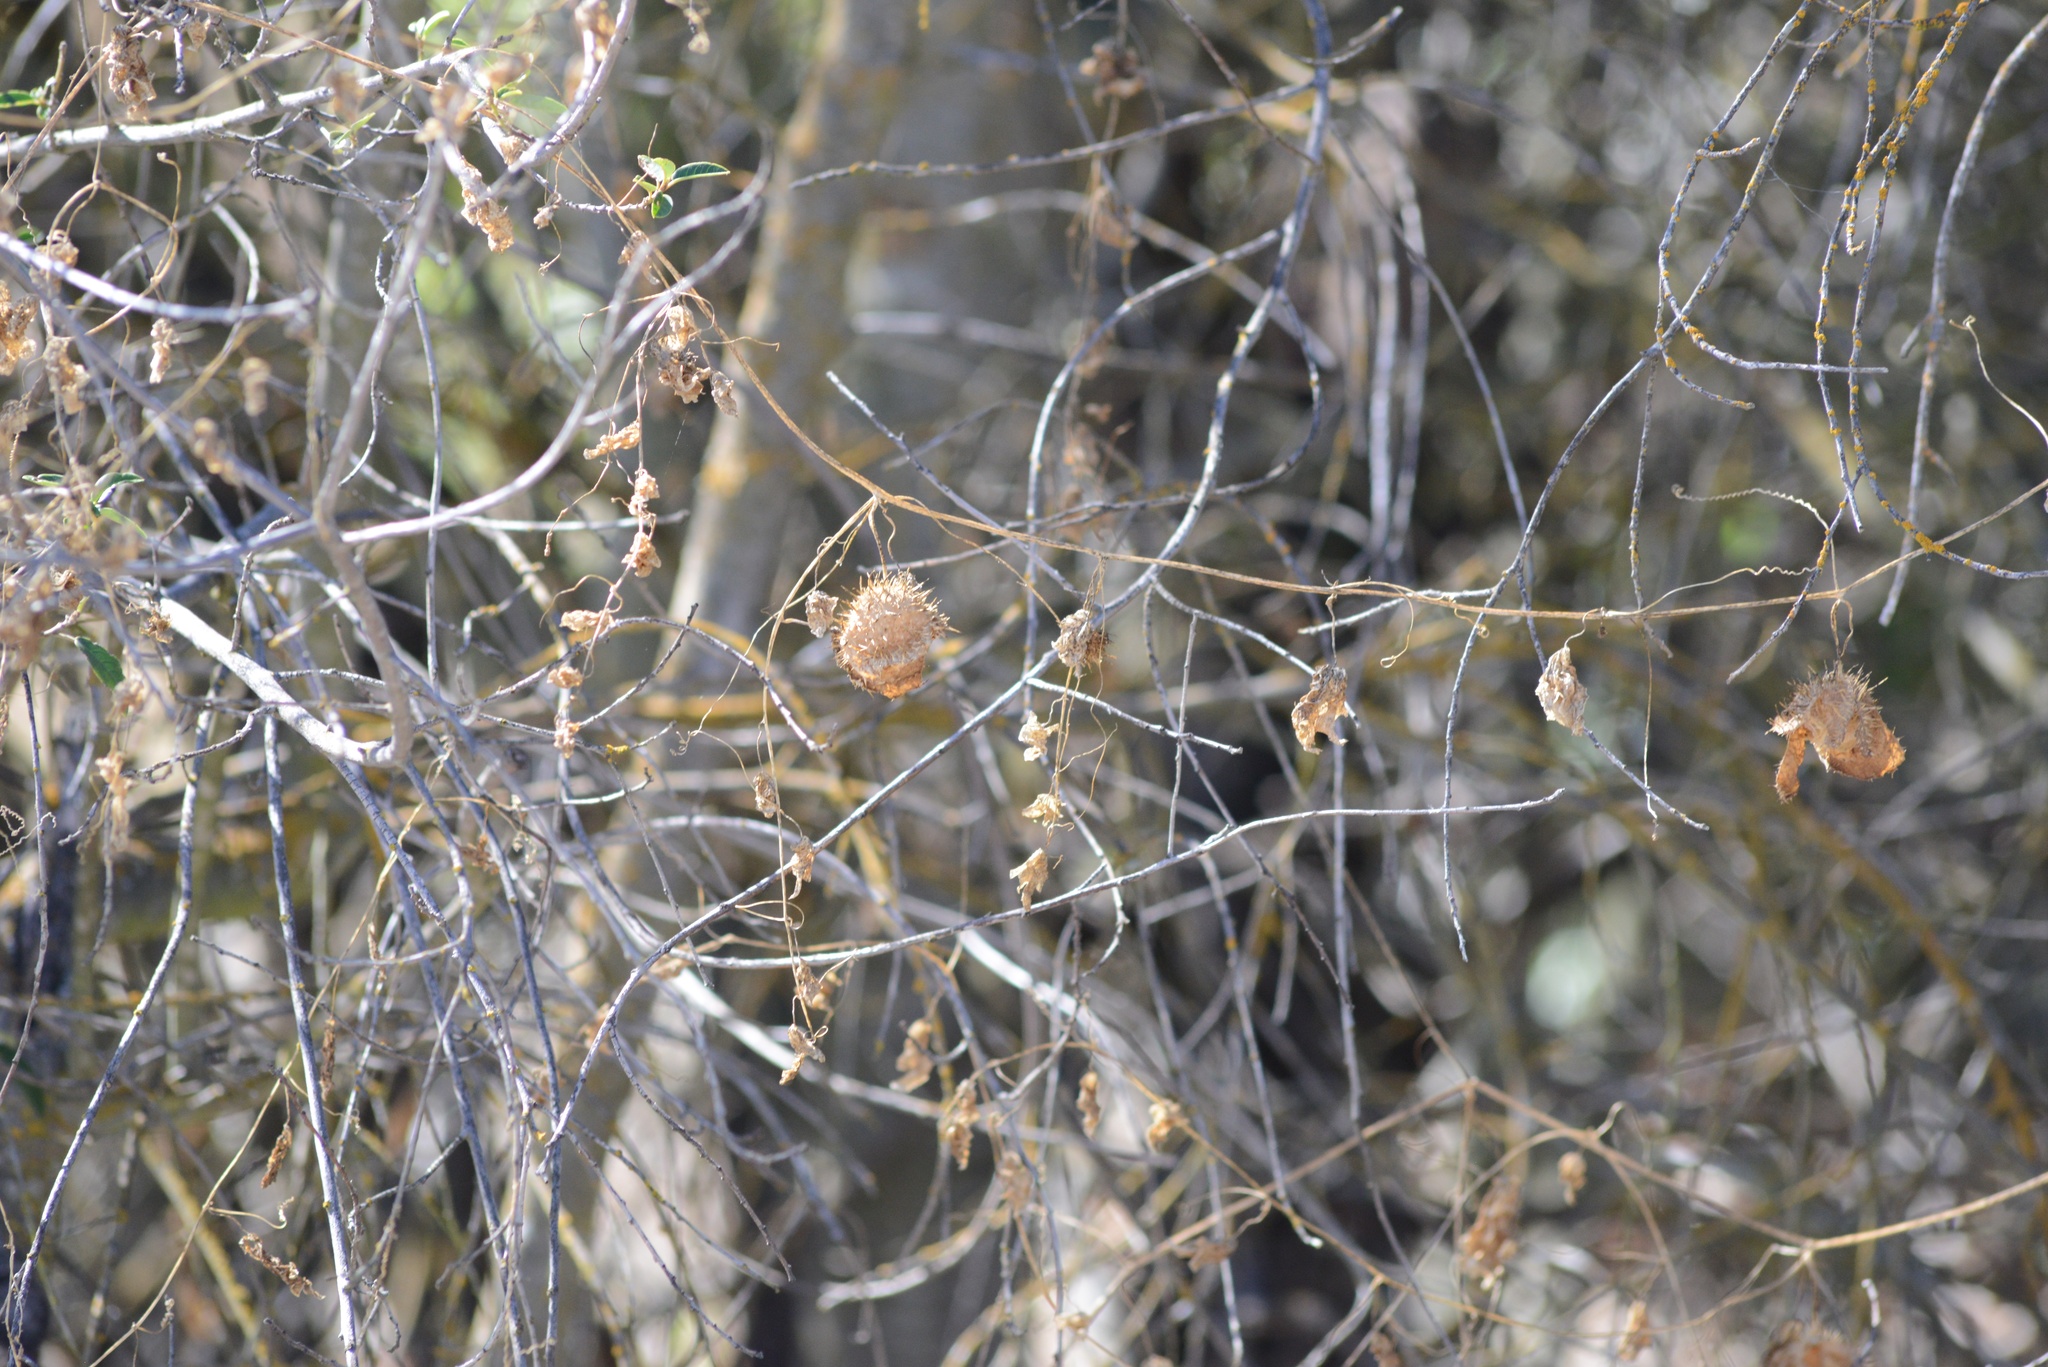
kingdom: Plantae
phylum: Tracheophyta
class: Magnoliopsida
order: Cucurbitales
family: Cucurbitaceae
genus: Marah
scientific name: Marah fabacea
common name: California manroot
